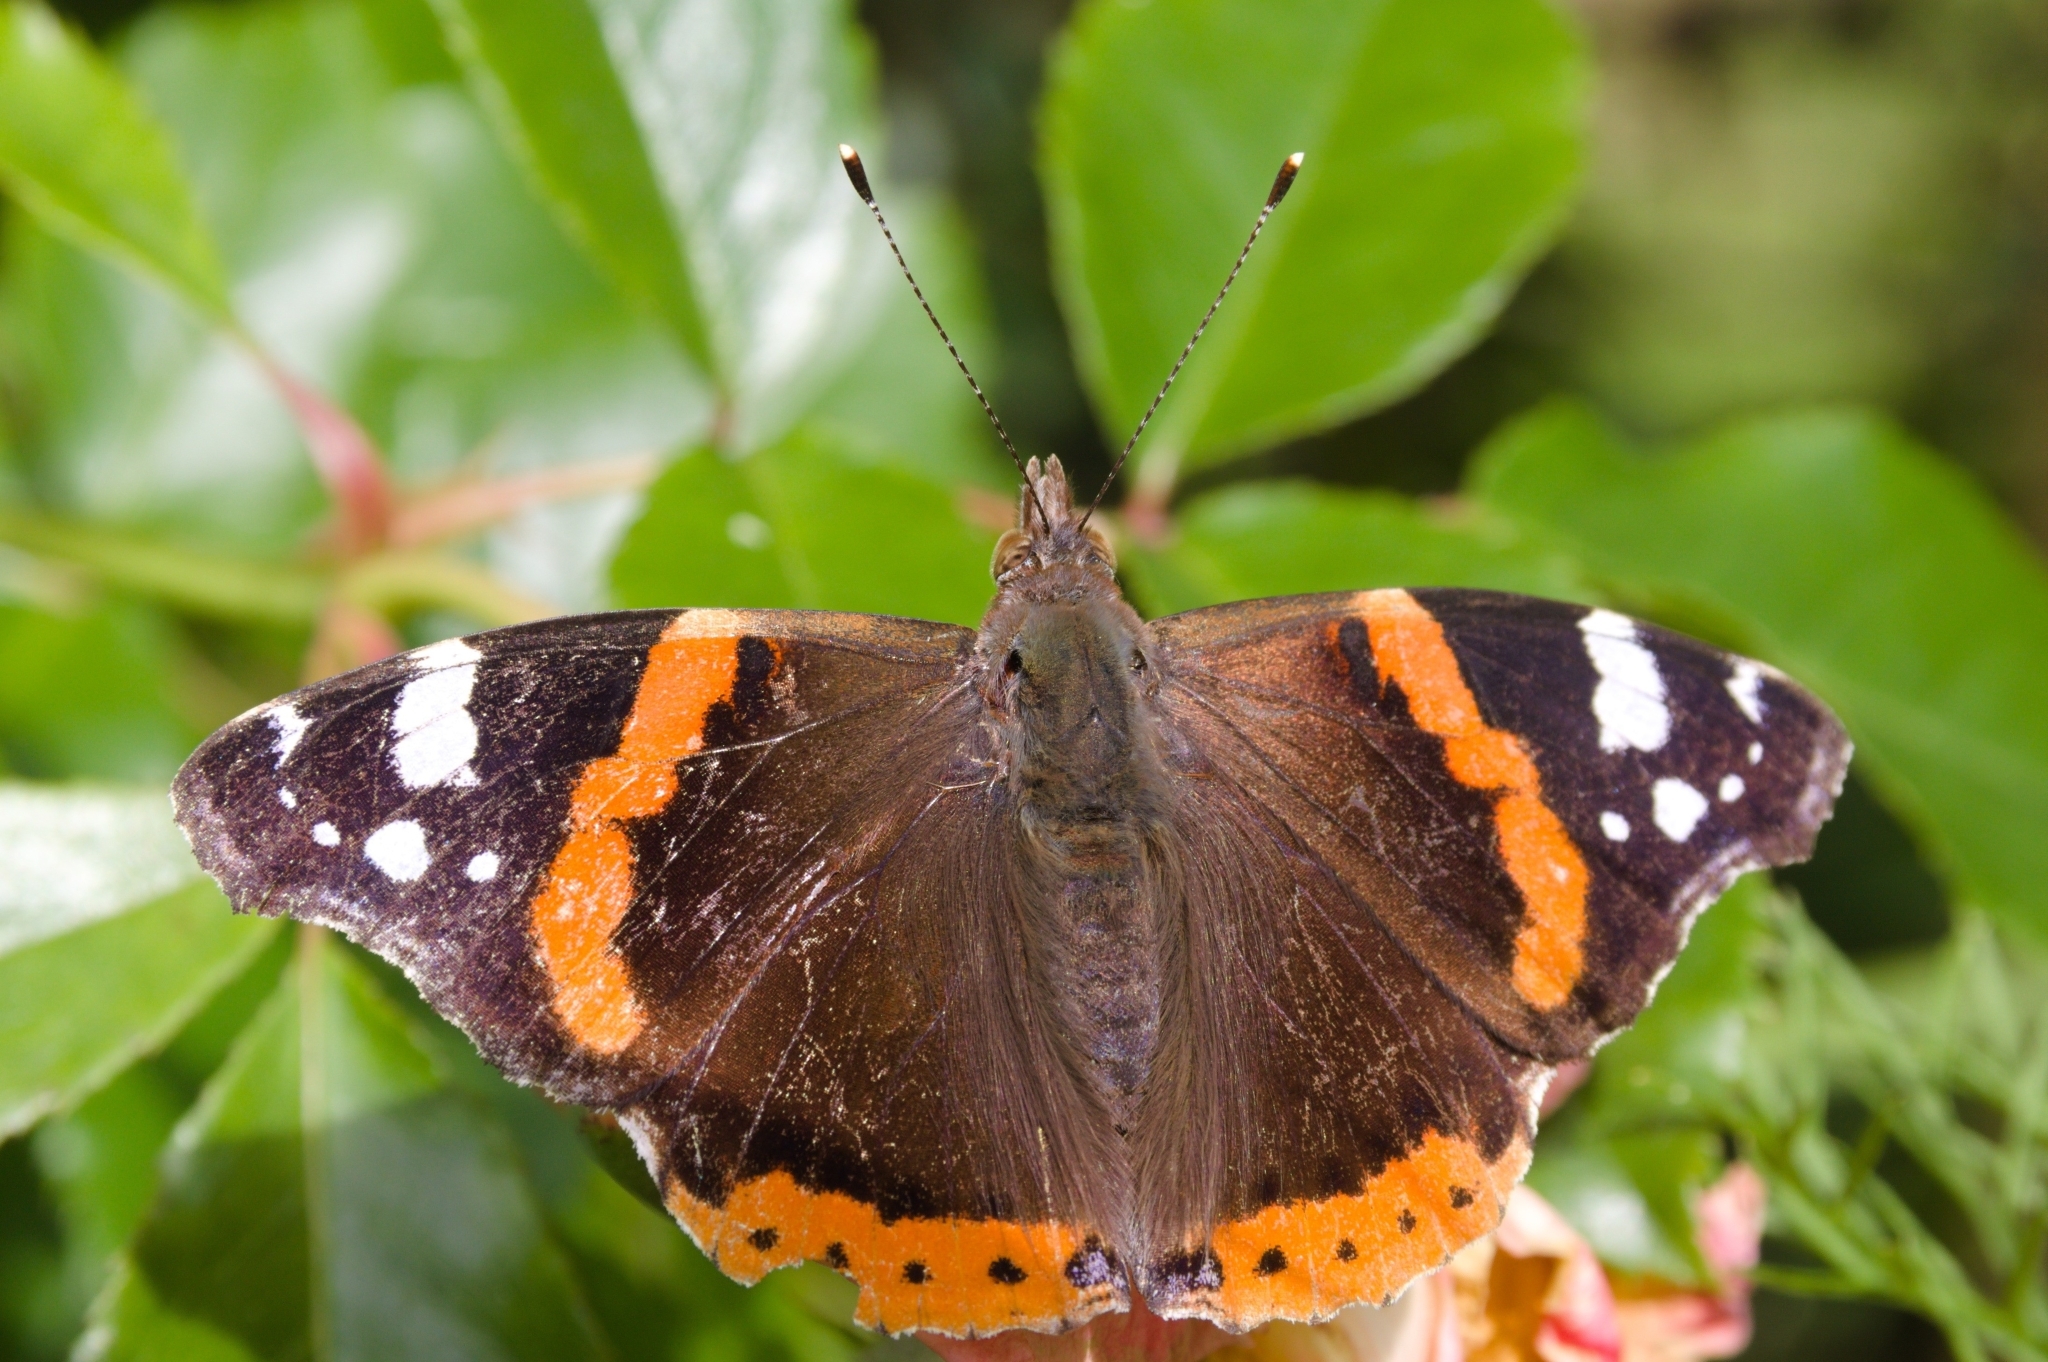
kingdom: Animalia
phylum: Arthropoda
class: Insecta
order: Lepidoptera
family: Nymphalidae
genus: Vanessa
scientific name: Vanessa atalanta
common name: Red admiral
